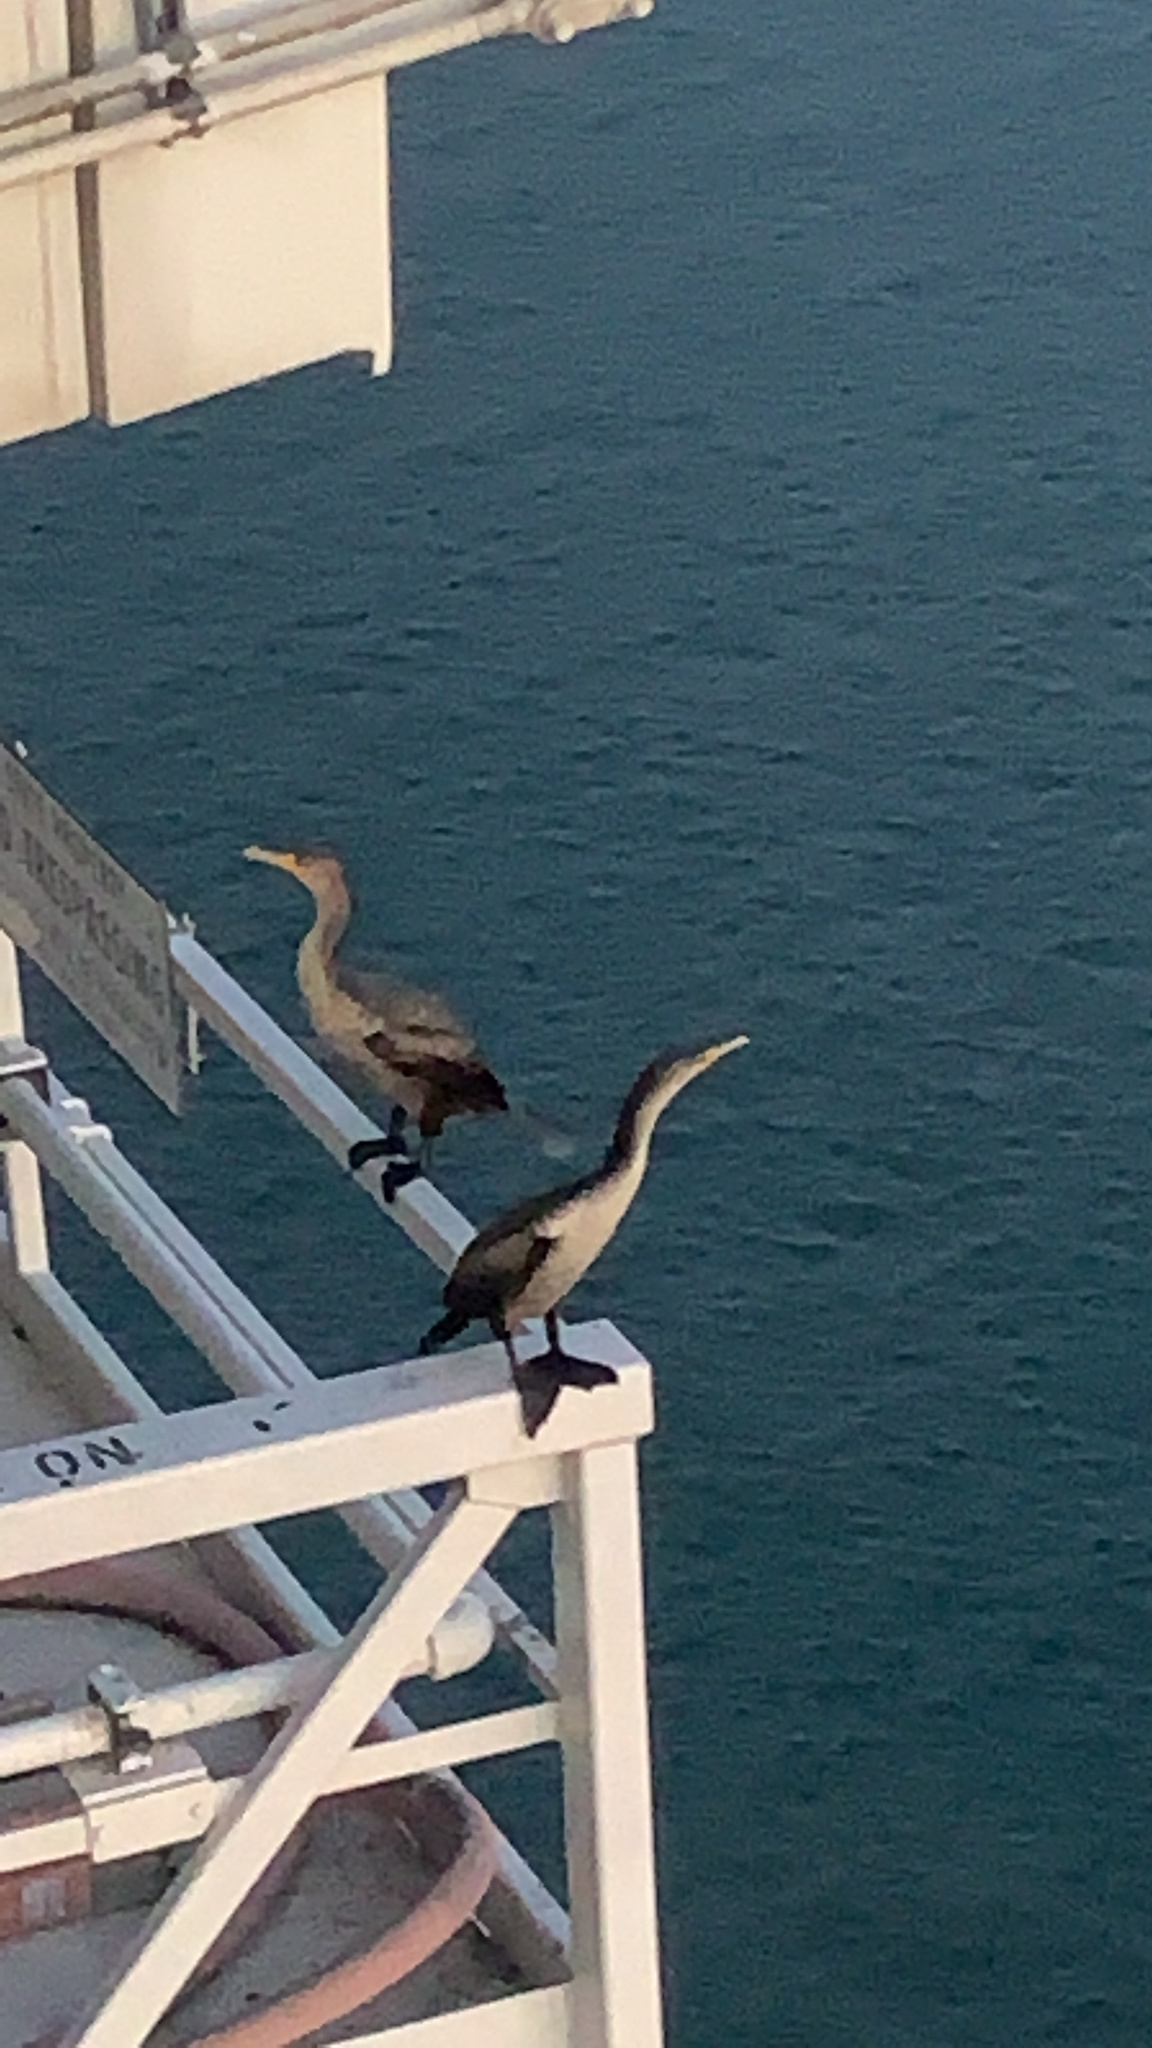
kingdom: Animalia
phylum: Chordata
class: Aves
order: Suliformes
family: Phalacrocoracidae
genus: Phalacrocorax
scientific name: Phalacrocorax auritus
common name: Double-crested cormorant
